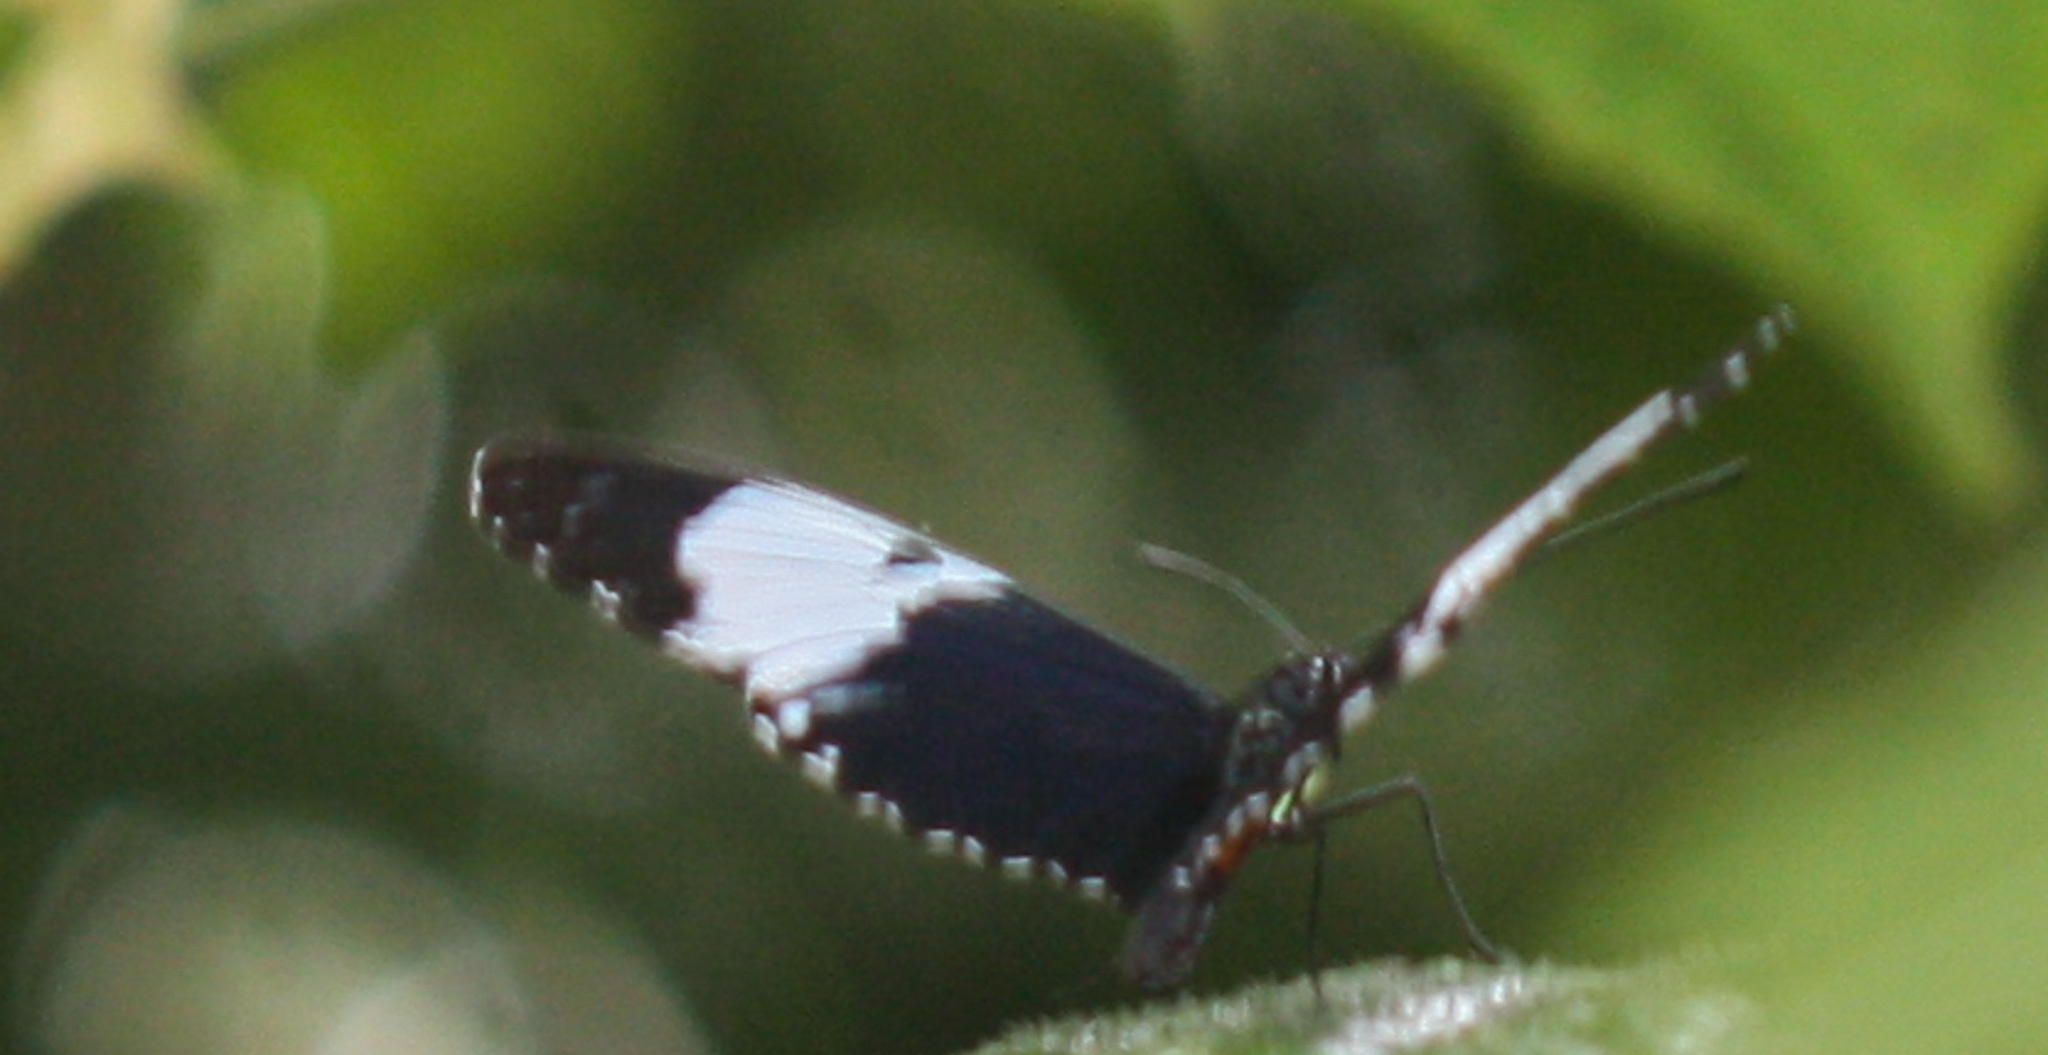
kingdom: Animalia
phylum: Arthropoda
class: Insecta
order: Lepidoptera
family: Nymphalidae
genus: Heliconius
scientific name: Heliconius cydno
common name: Cydno longwing
